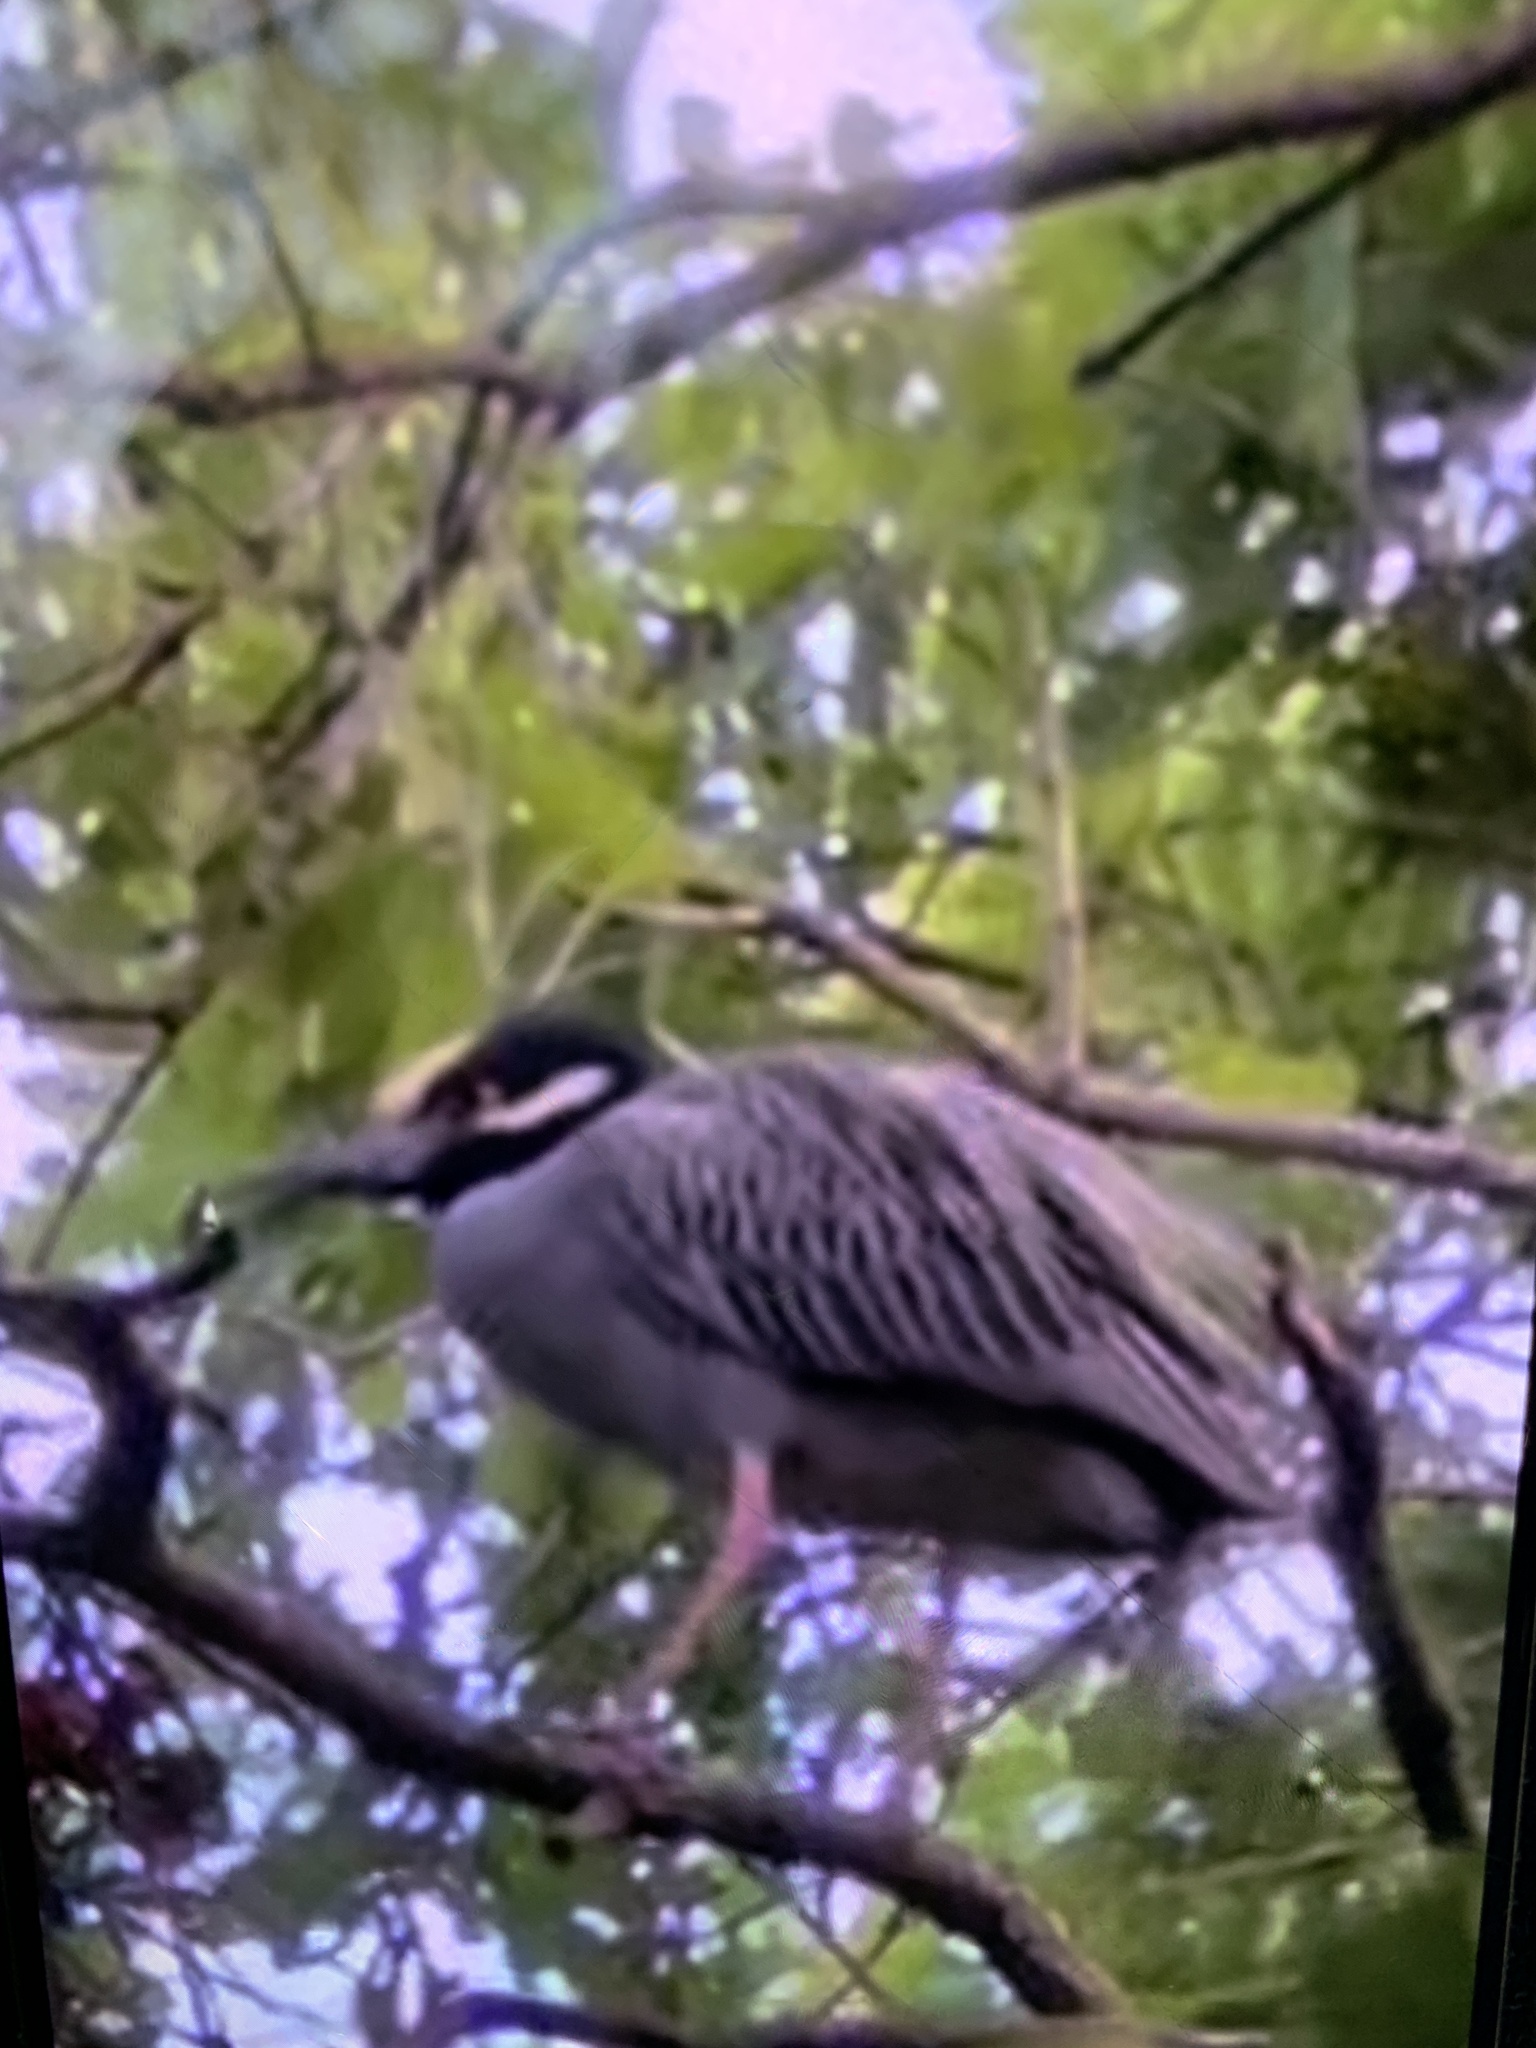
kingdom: Animalia
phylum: Chordata
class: Aves
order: Pelecaniformes
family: Ardeidae
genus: Nyctanassa
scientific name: Nyctanassa violacea
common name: Yellow-crowned night heron
